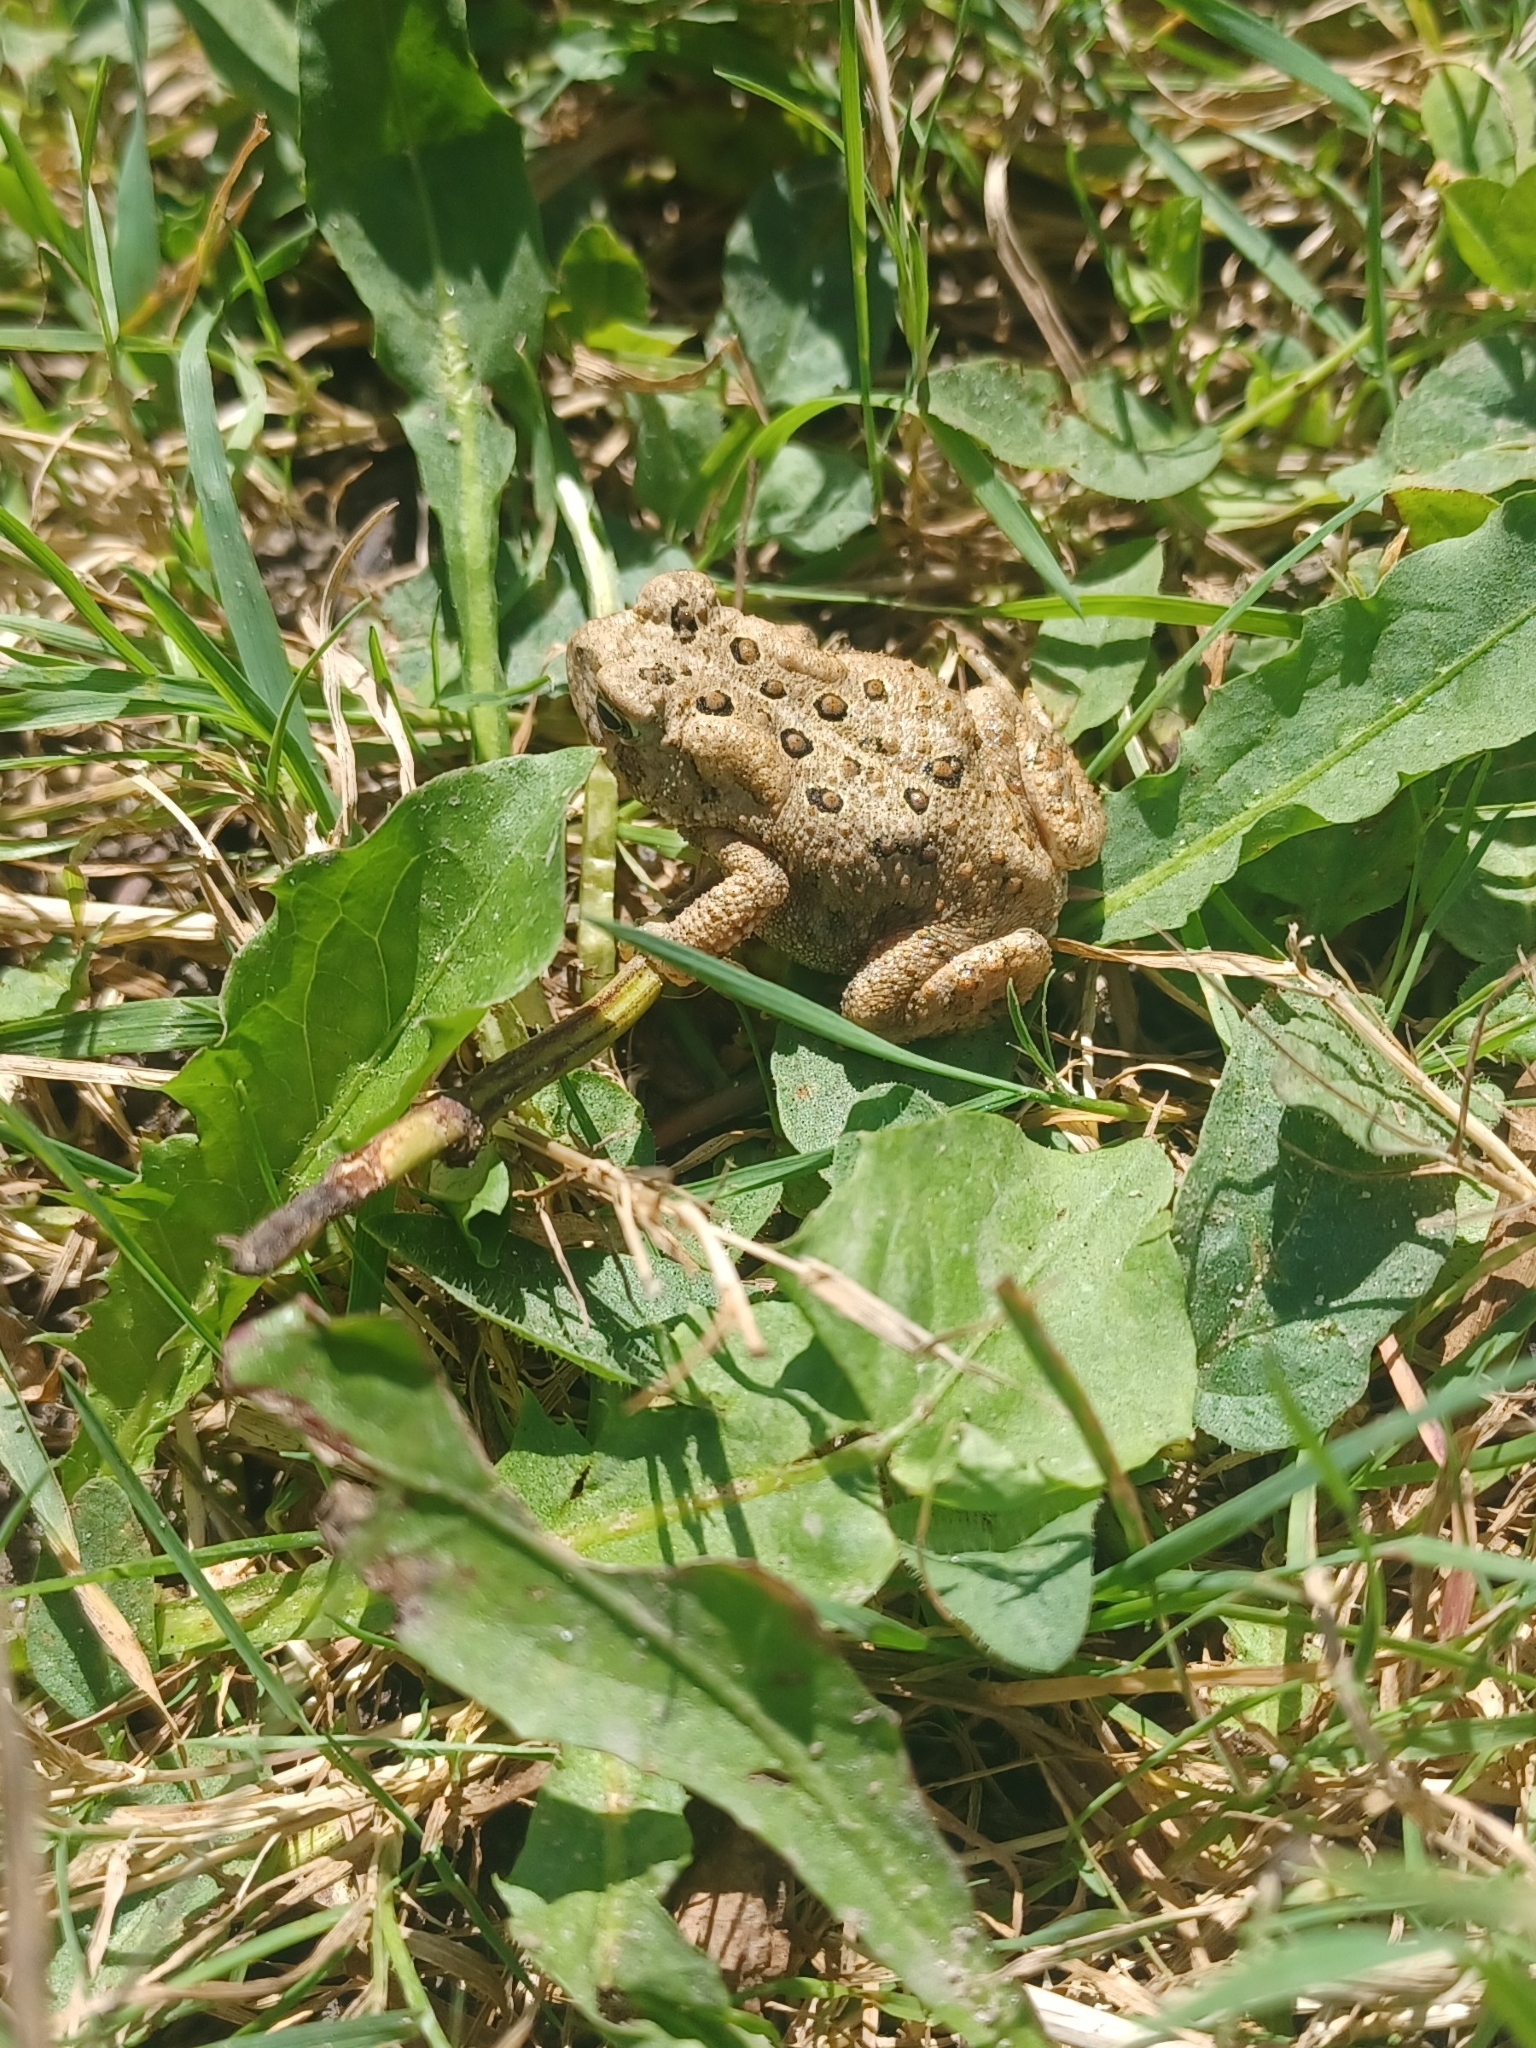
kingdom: Animalia
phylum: Chordata
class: Amphibia
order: Anura
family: Bufonidae
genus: Anaxyrus
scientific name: Anaxyrus americanus
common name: American toad
